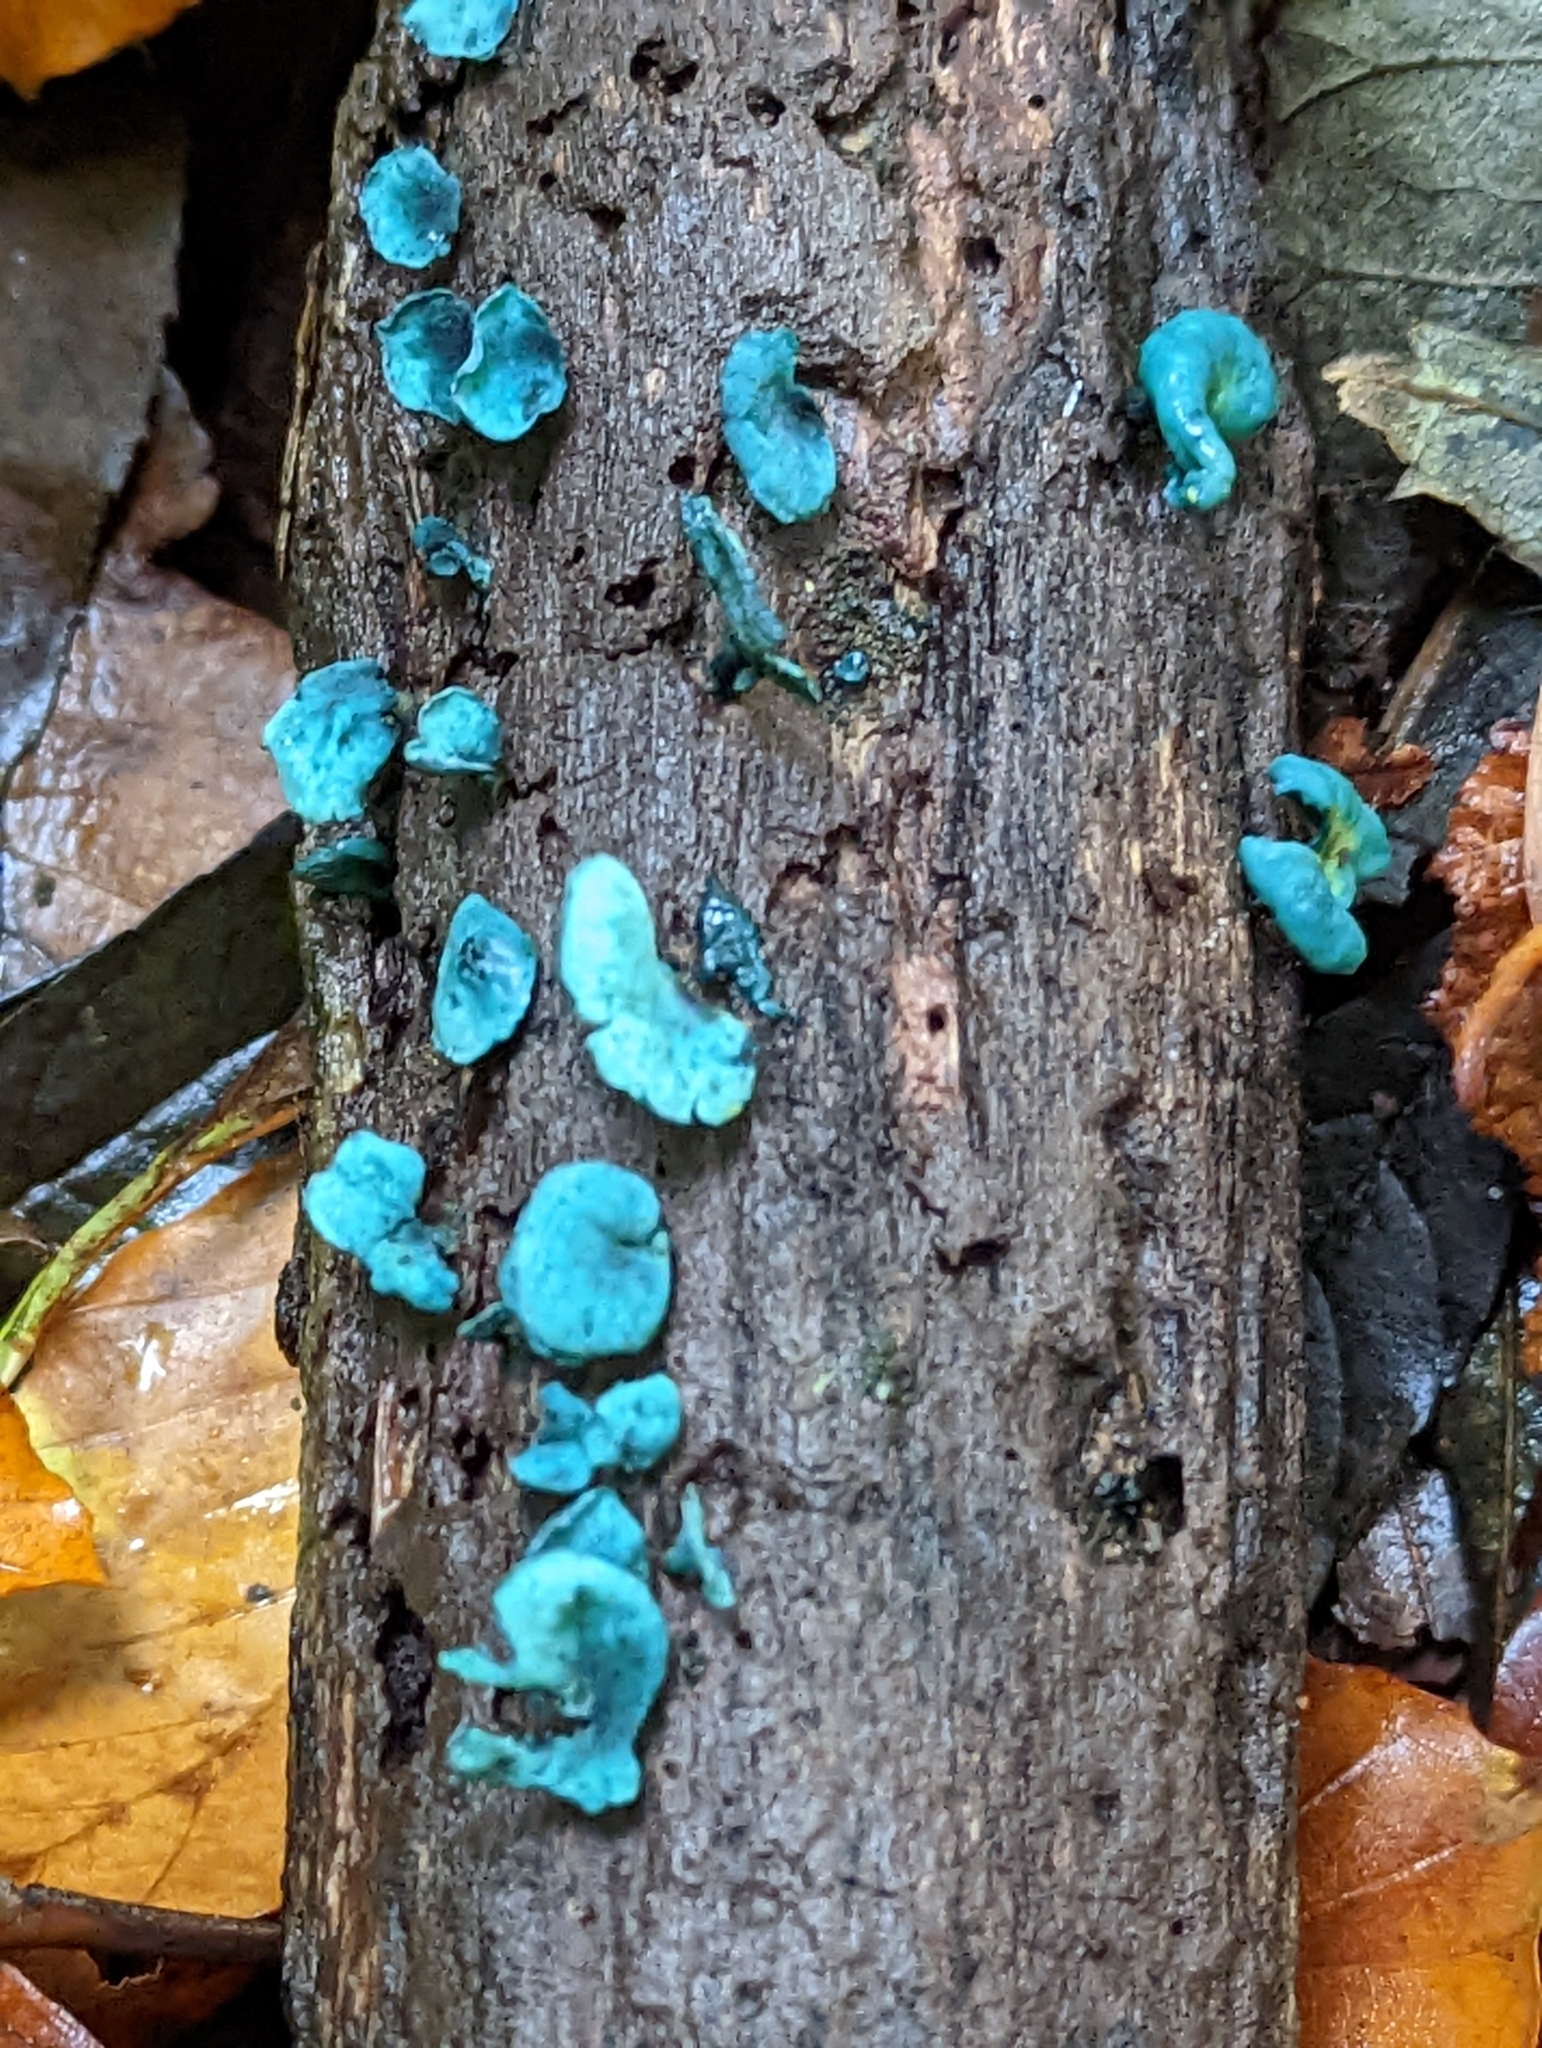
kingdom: Fungi
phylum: Ascomycota
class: Leotiomycetes
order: Helotiales
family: Chlorociboriaceae
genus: Chlorociboria
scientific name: Chlorociboria aeruginascens
